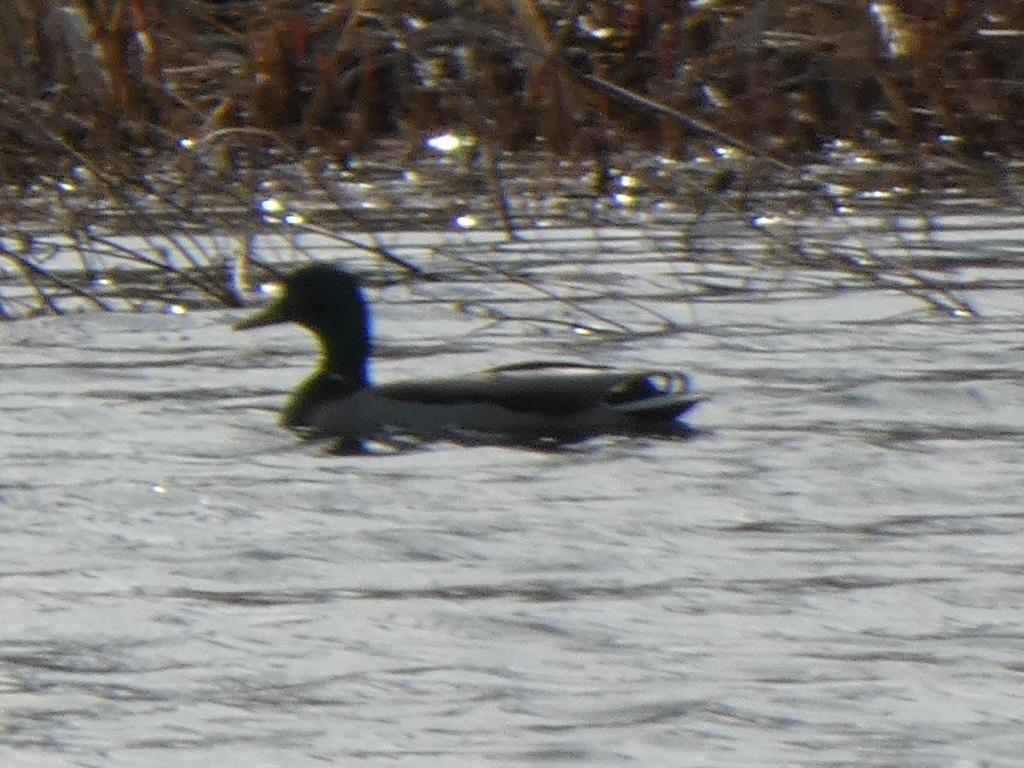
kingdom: Animalia
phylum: Chordata
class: Aves
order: Anseriformes
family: Anatidae
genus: Anas
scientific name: Anas platyrhynchos
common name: Mallard
